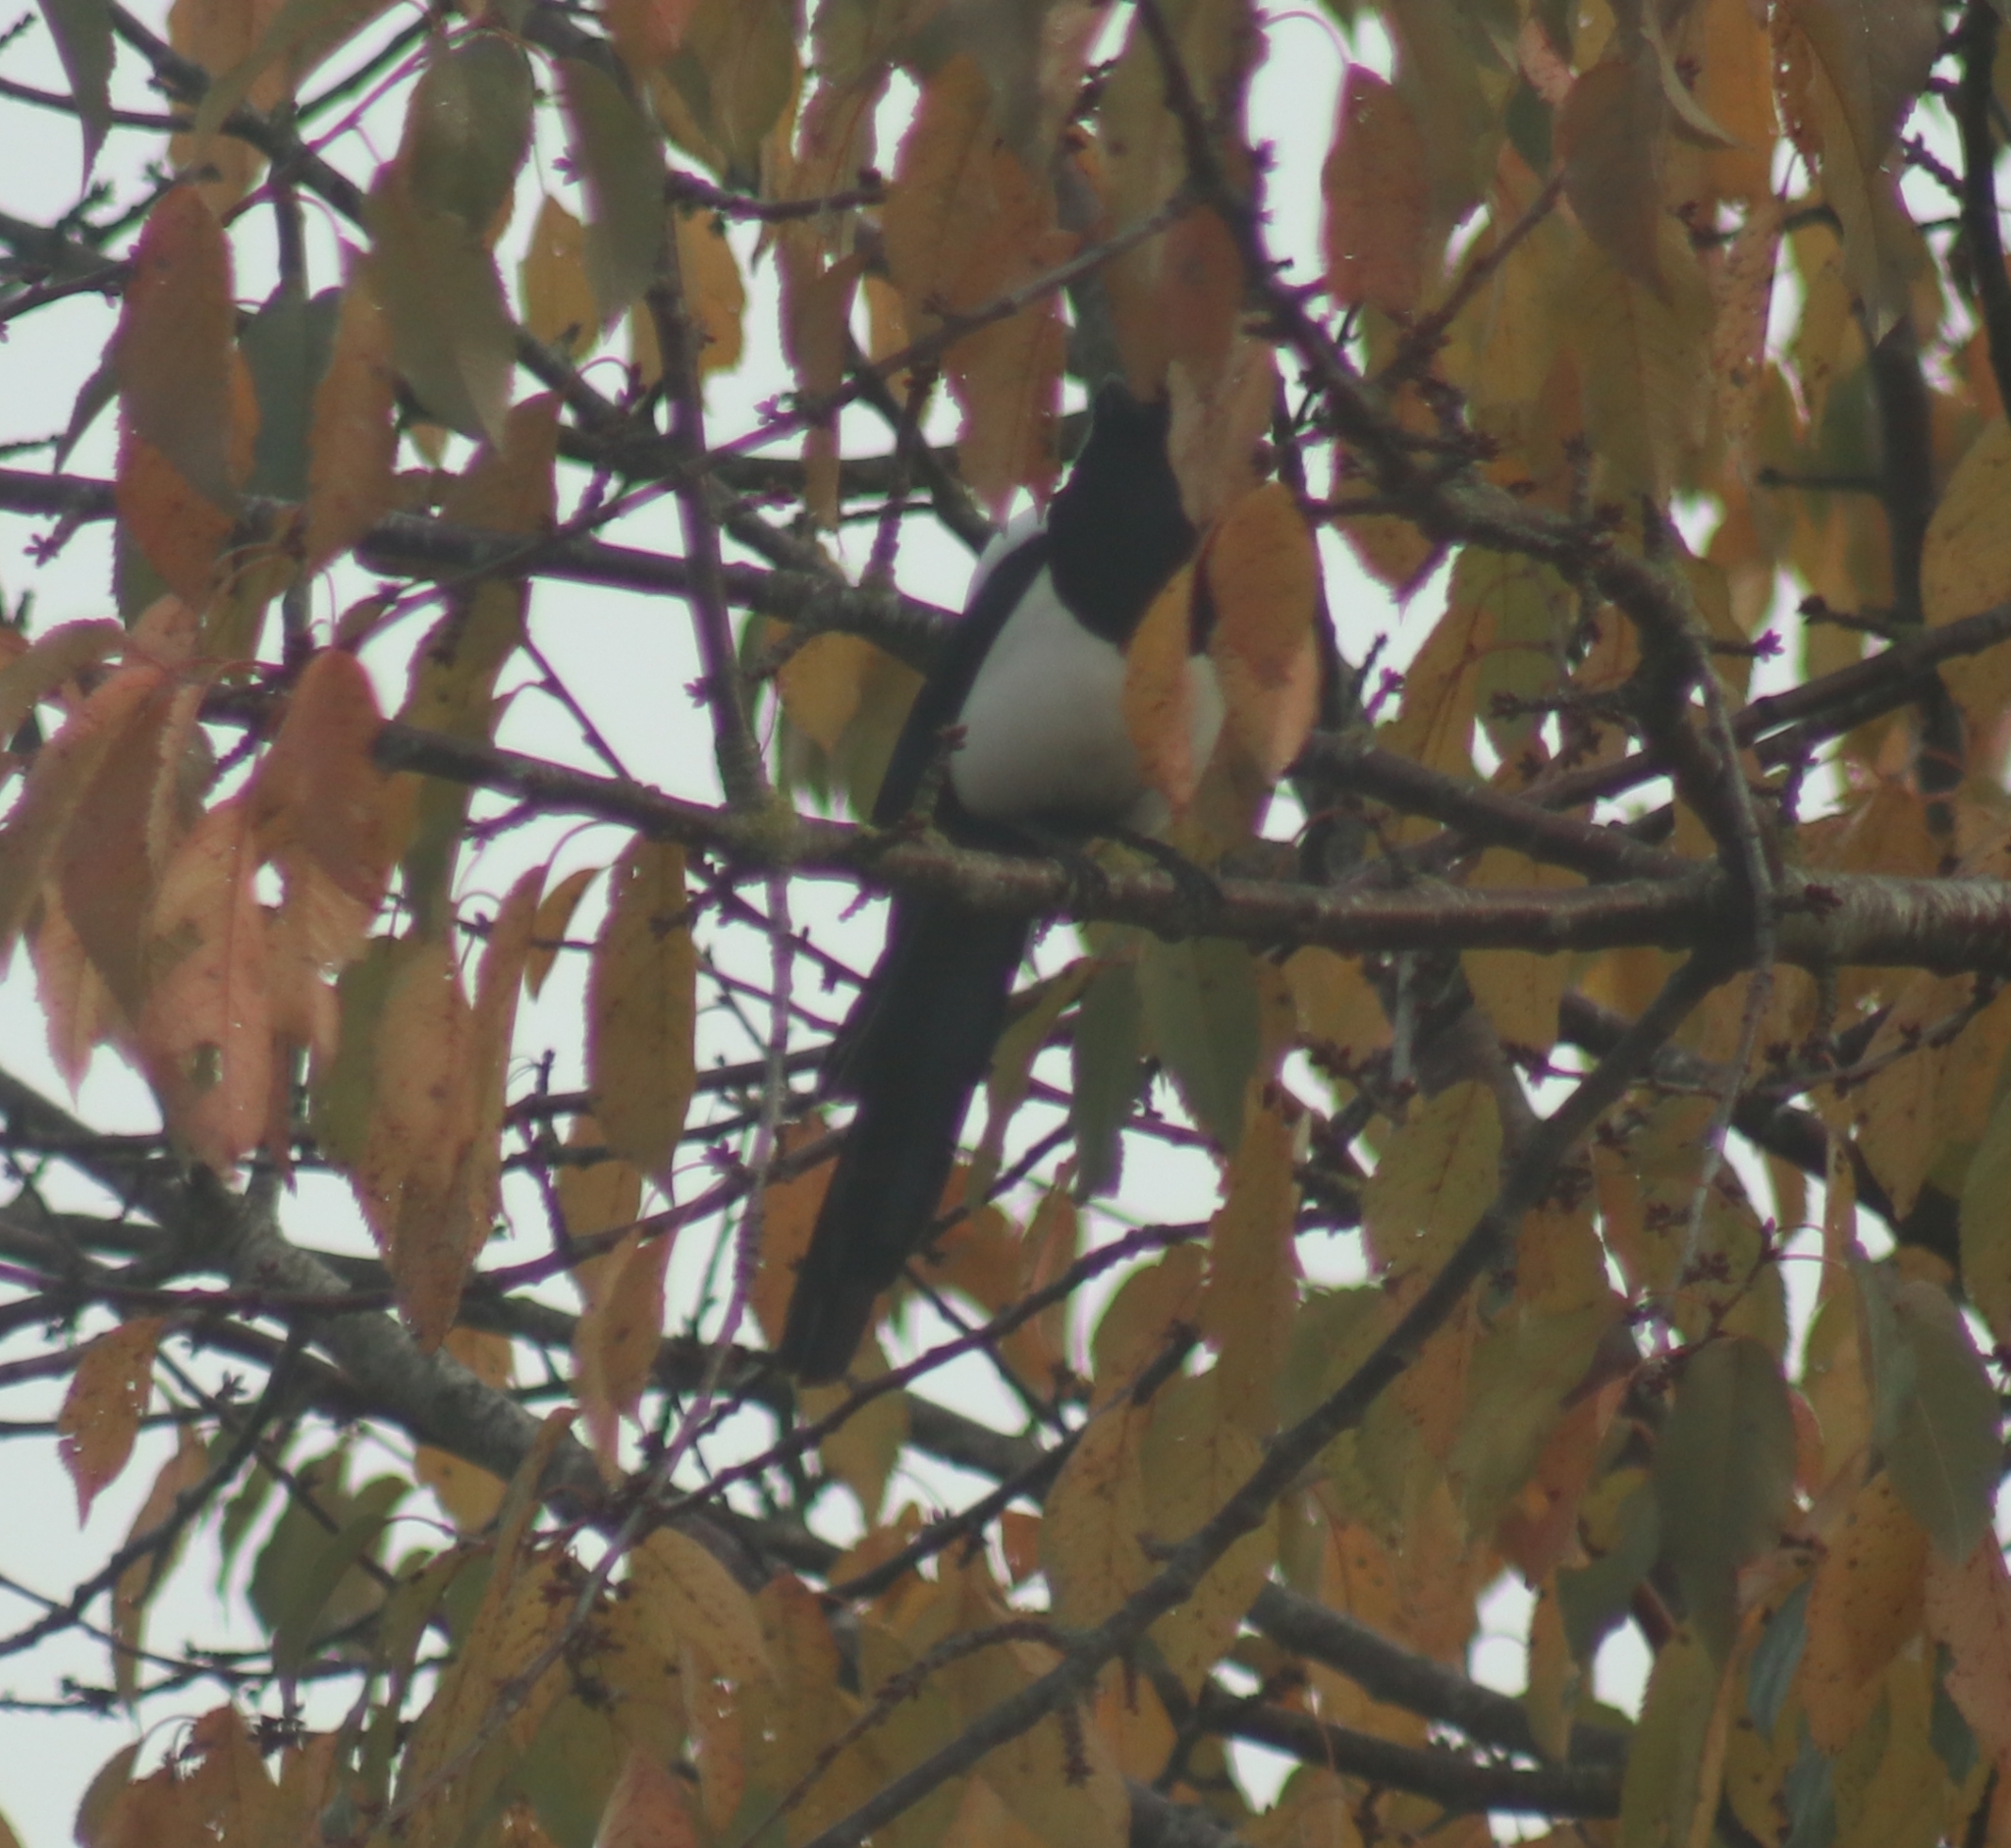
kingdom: Animalia
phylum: Chordata
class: Aves
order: Passeriformes
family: Corvidae
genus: Pica
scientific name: Pica pica
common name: Eurasian magpie
